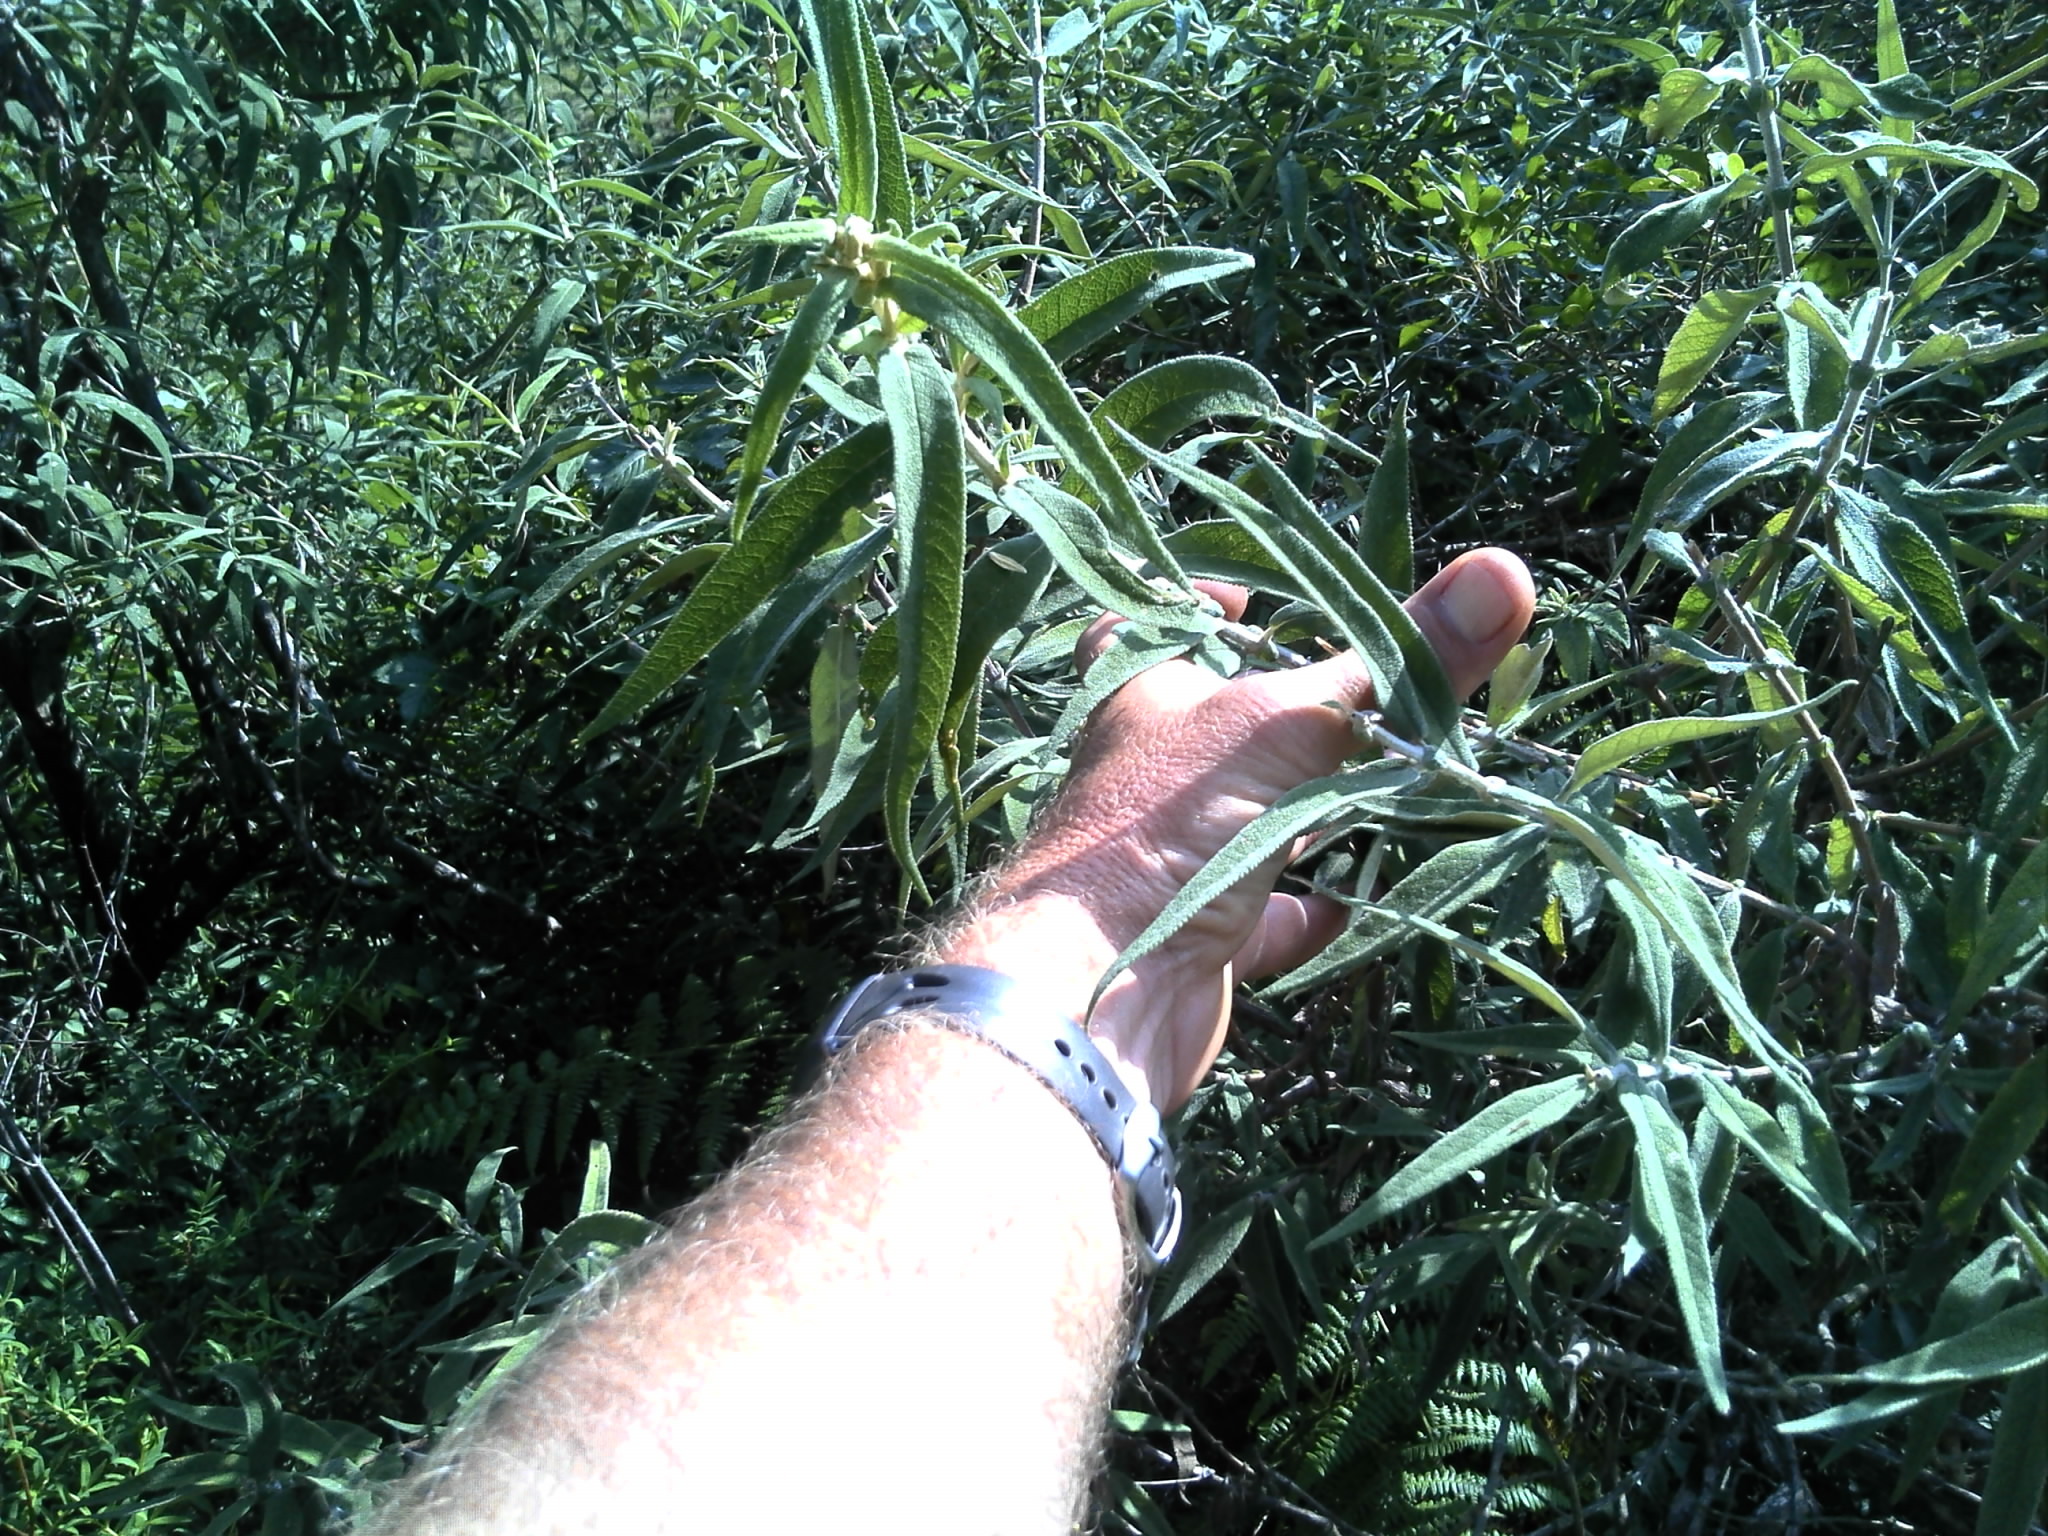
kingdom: Plantae
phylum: Tracheophyta
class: Magnoliopsida
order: Lamiales
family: Scrophulariaceae
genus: Buddleja
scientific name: Buddleja salviifolia
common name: Sagewood
